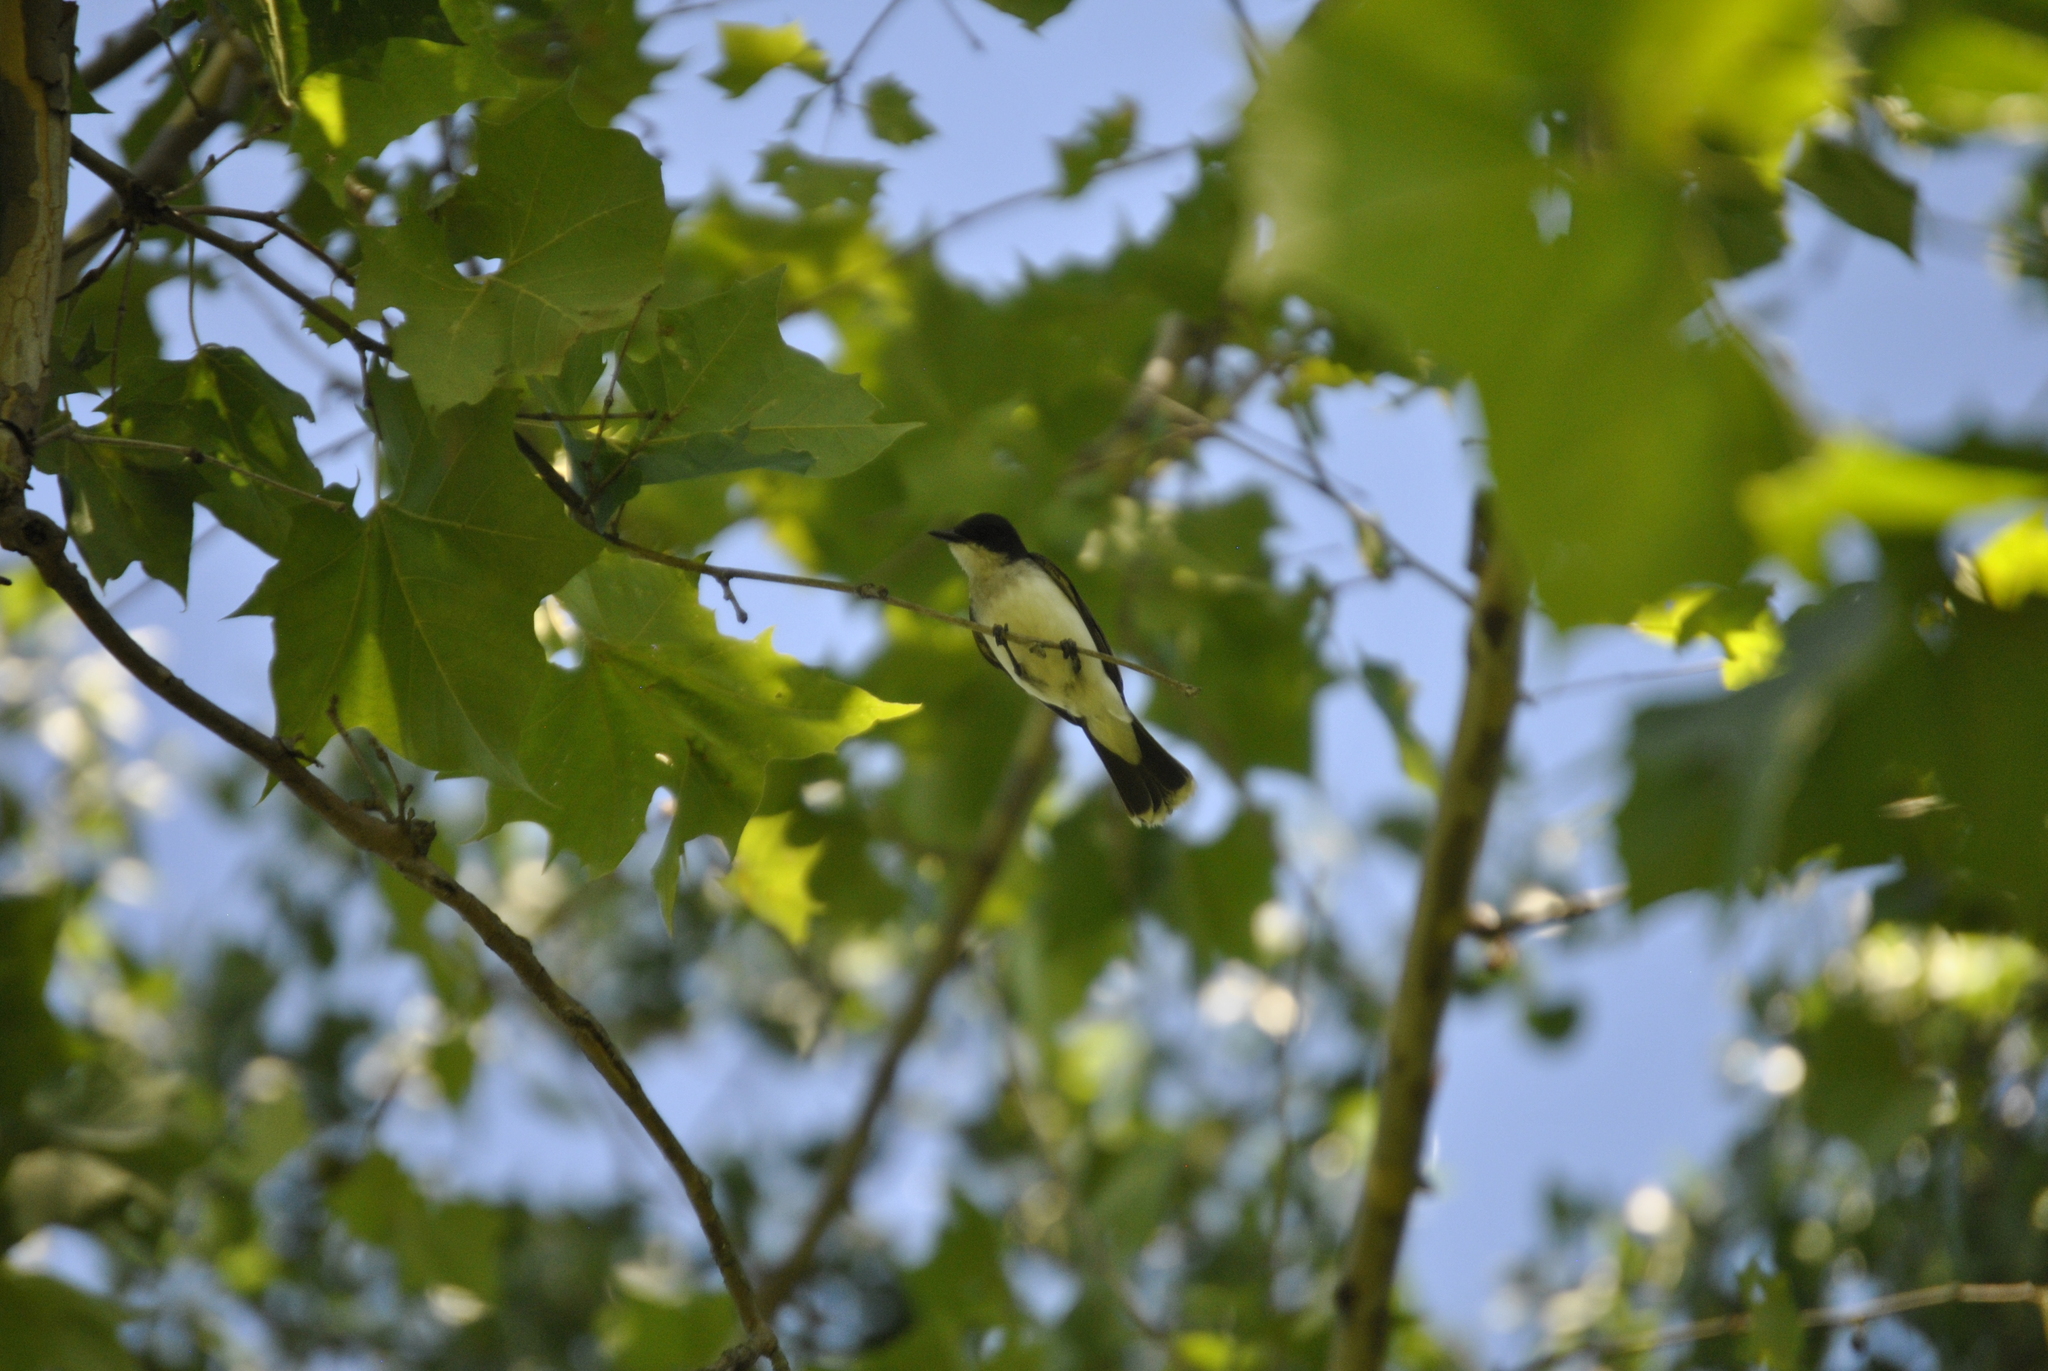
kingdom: Animalia
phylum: Chordata
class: Aves
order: Passeriformes
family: Tyrannidae
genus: Tyrannus
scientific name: Tyrannus tyrannus
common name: Eastern kingbird
